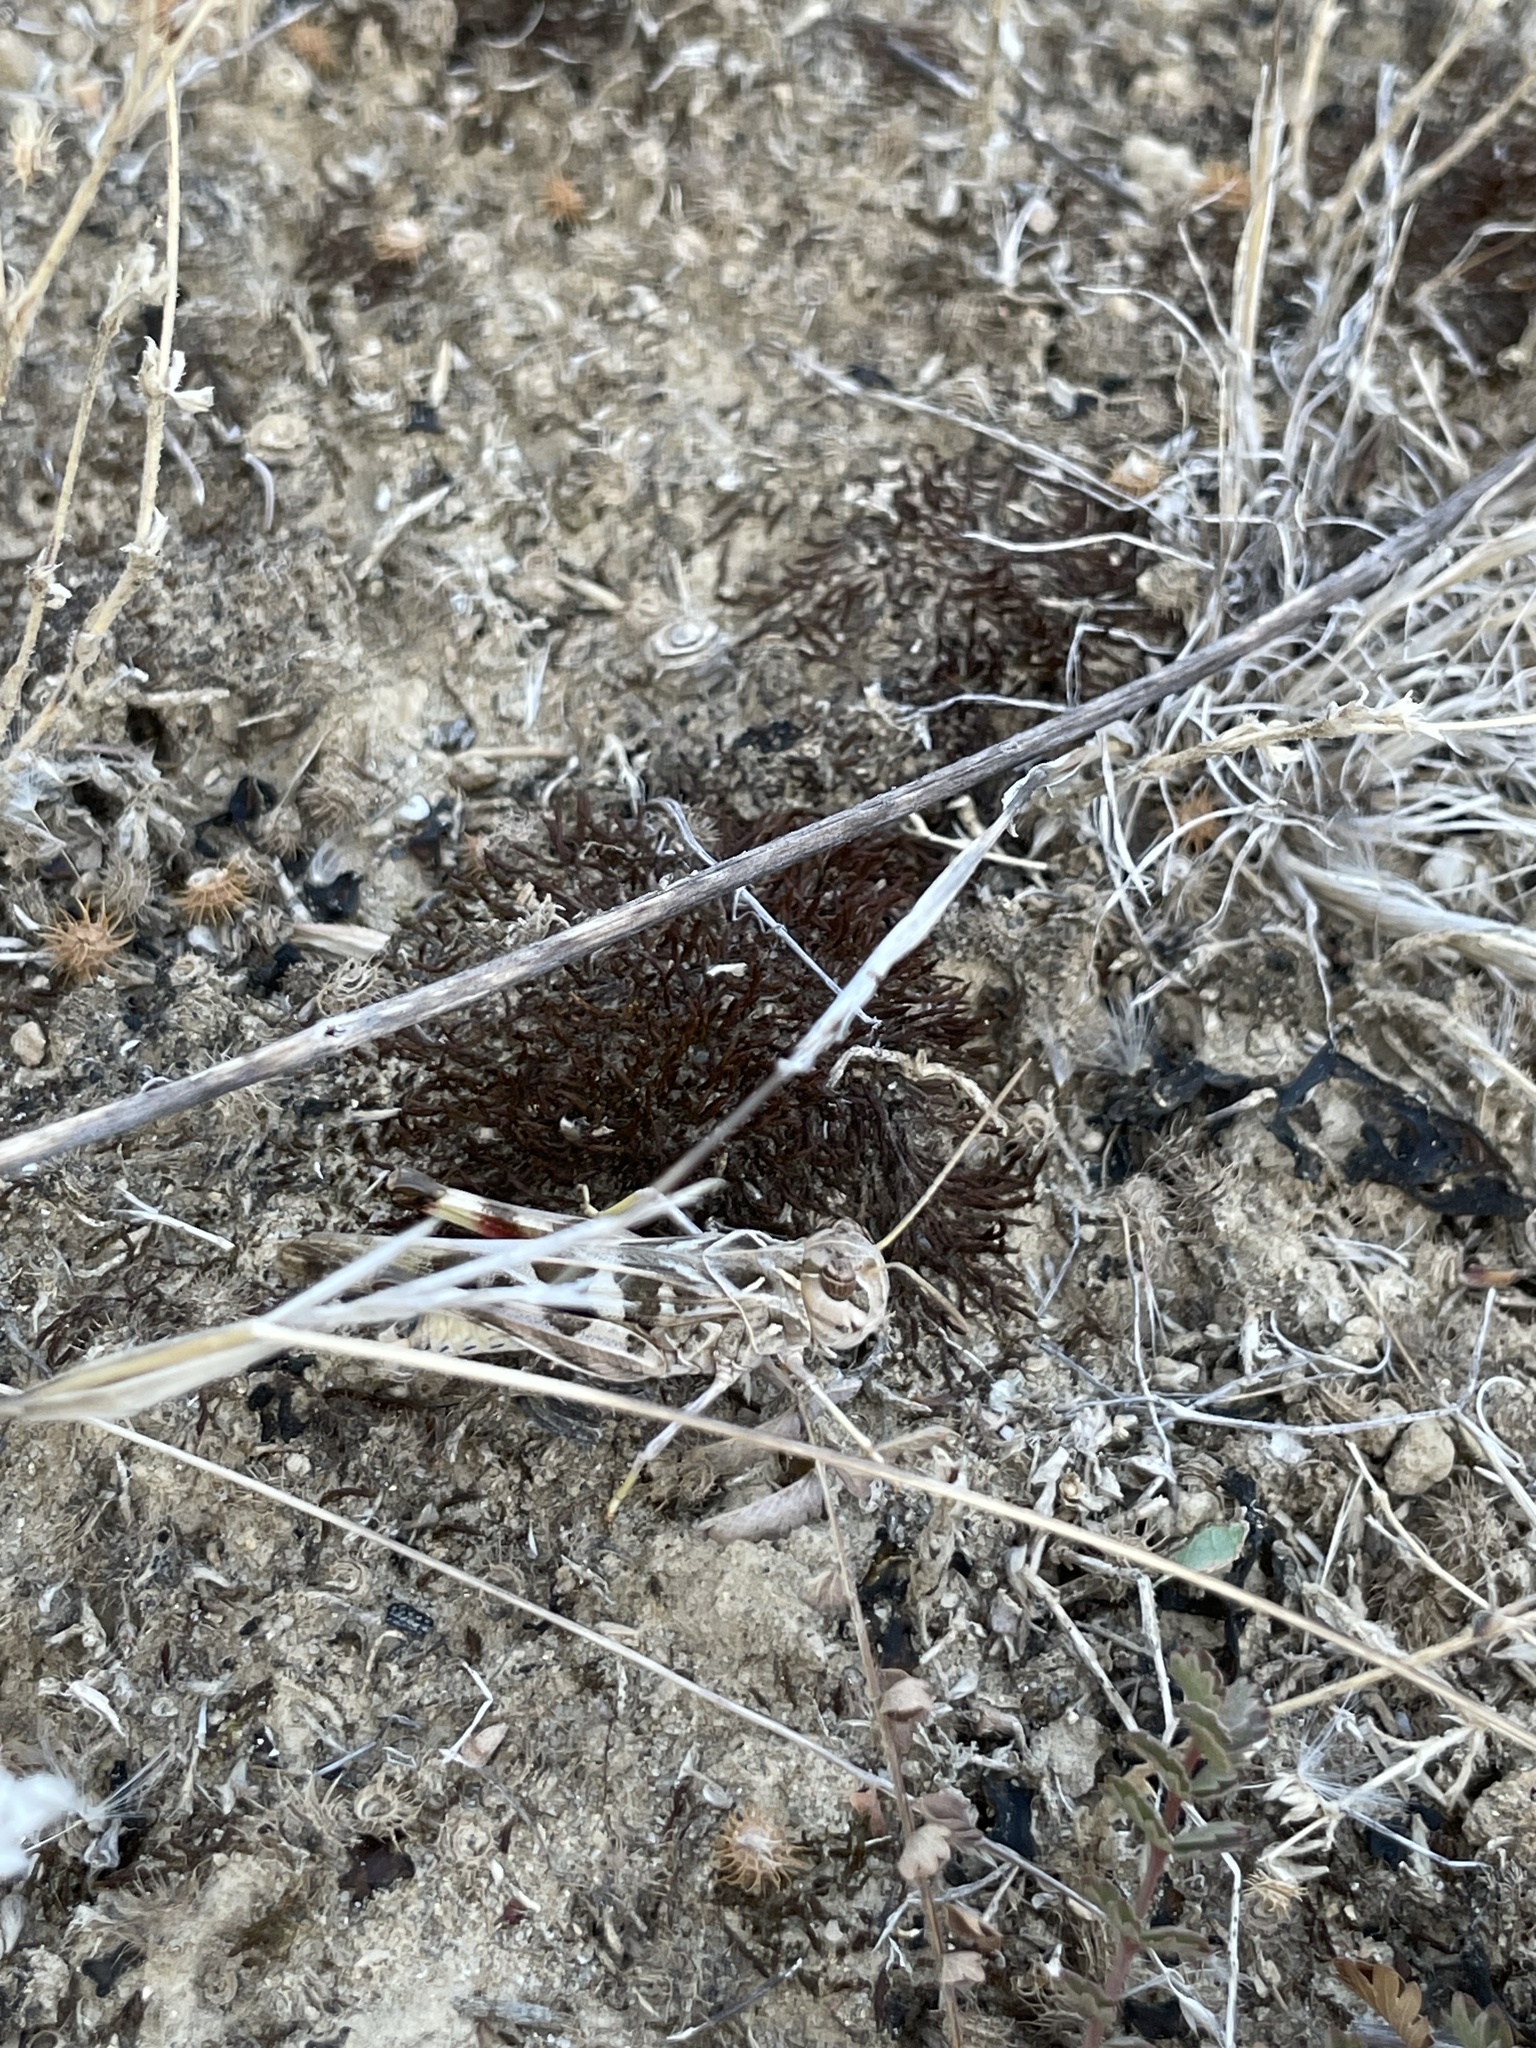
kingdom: Animalia
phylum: Arthropoda
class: Insecta
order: Orthoptera
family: Acrididae
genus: Oedaleus
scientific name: Oedaleus decorus
